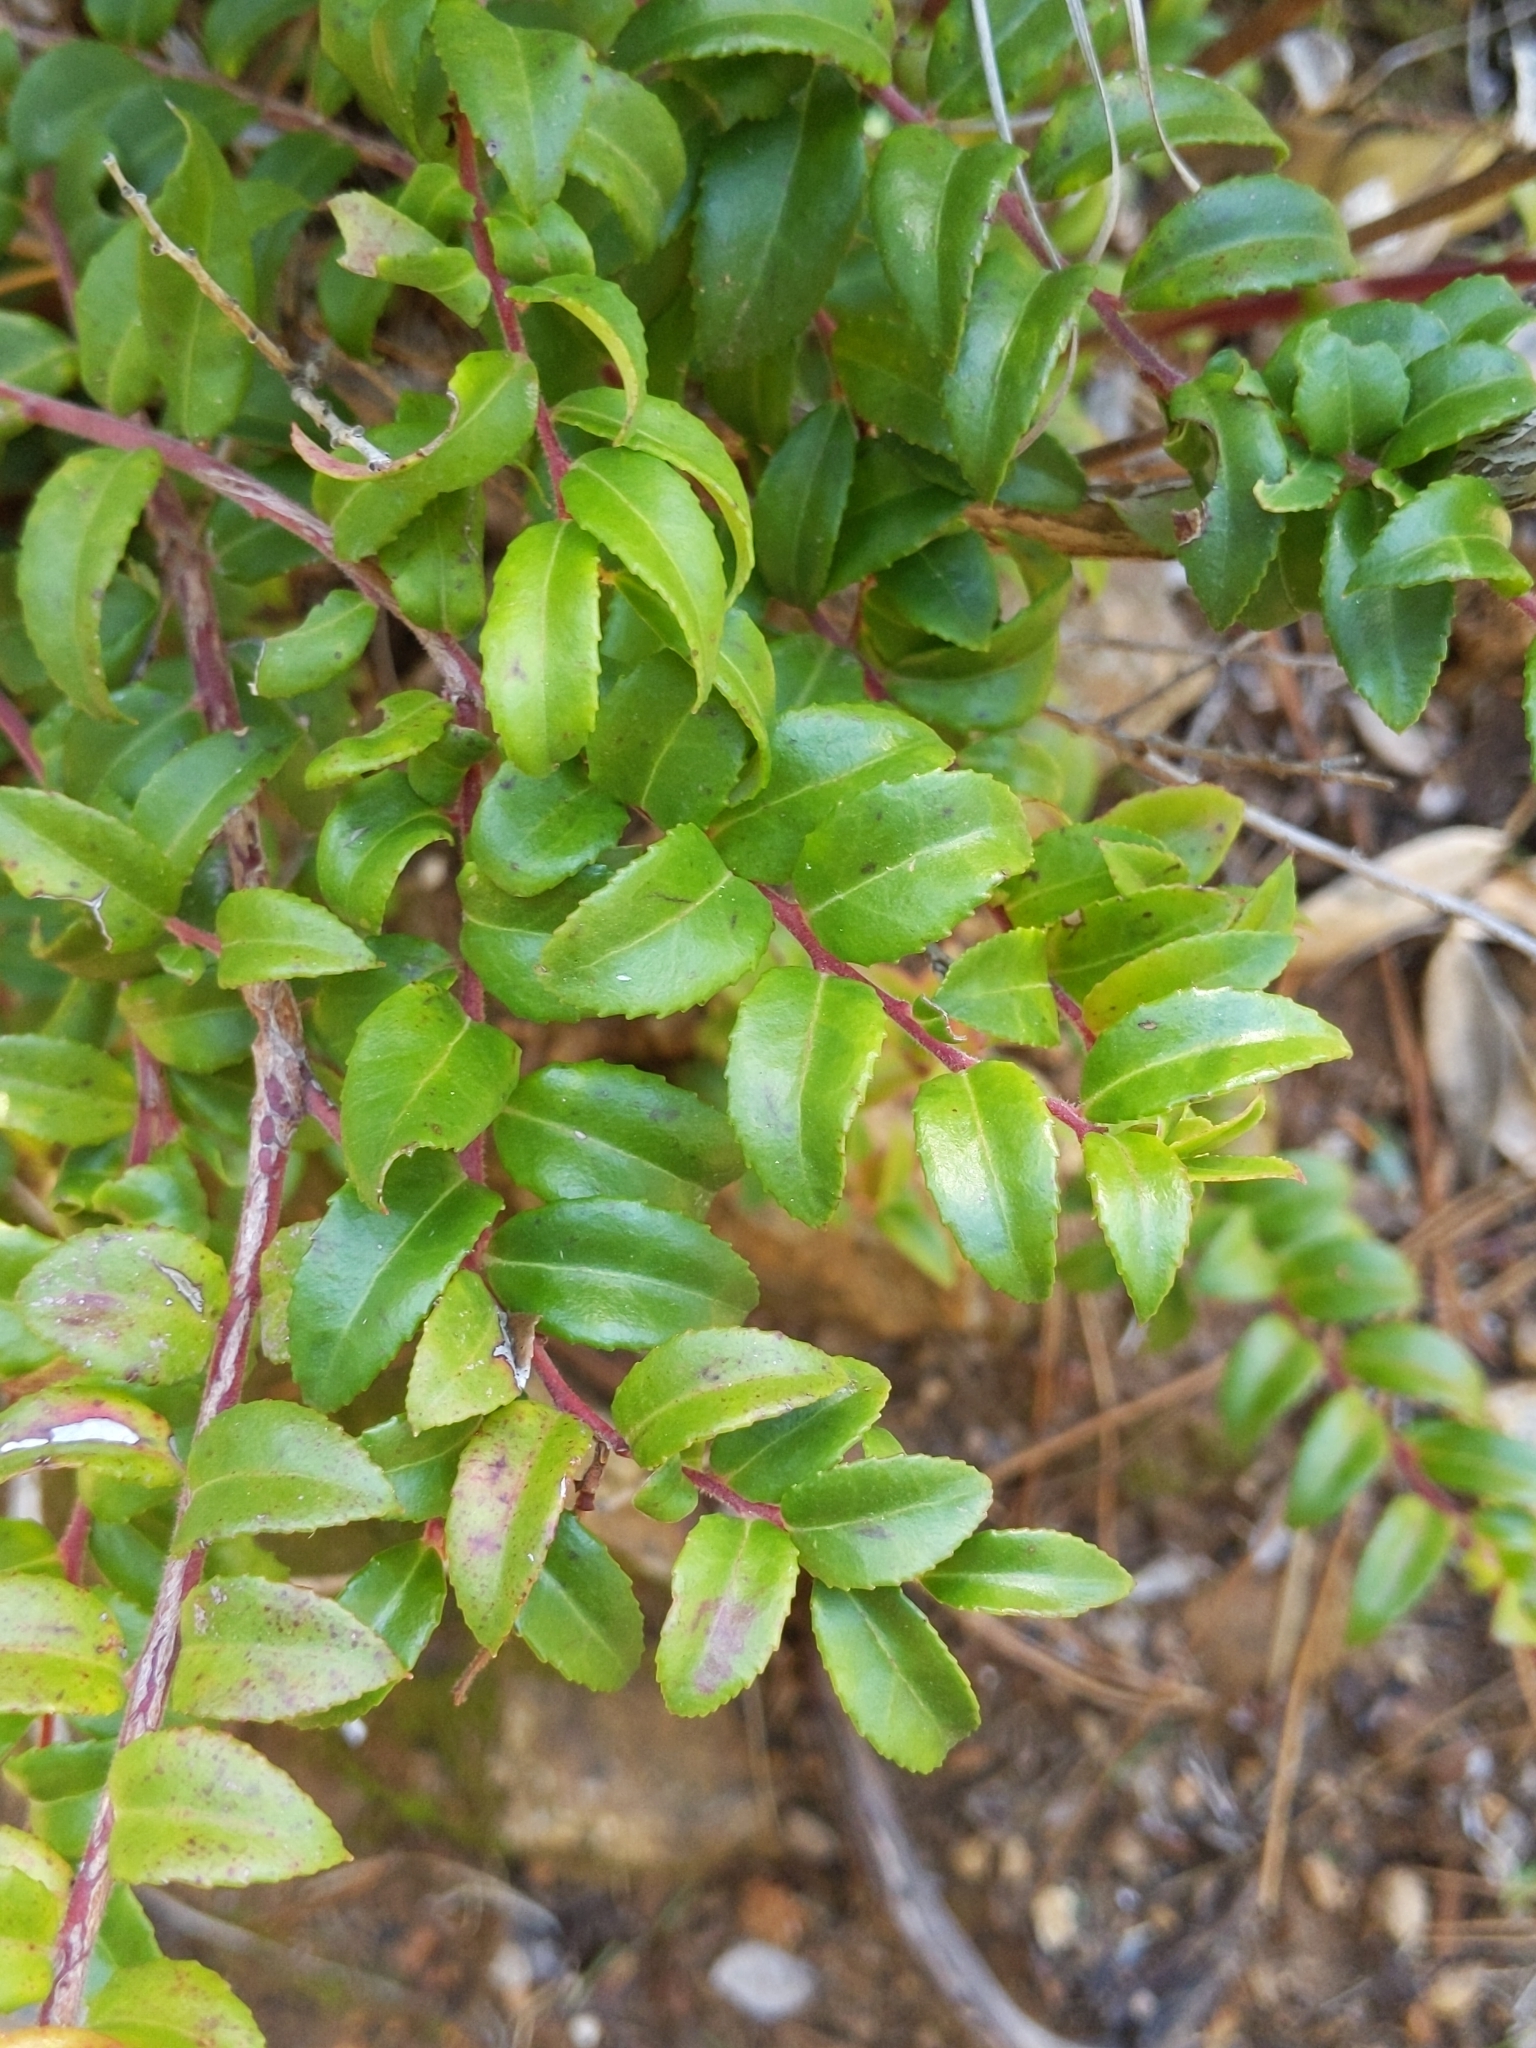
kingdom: Plantae
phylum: Tracheophyta
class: Magnoliopsida
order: Ericales
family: Ericaceae
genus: Vaccinium
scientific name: Vaccinium ovatum
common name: California-huckleberry
